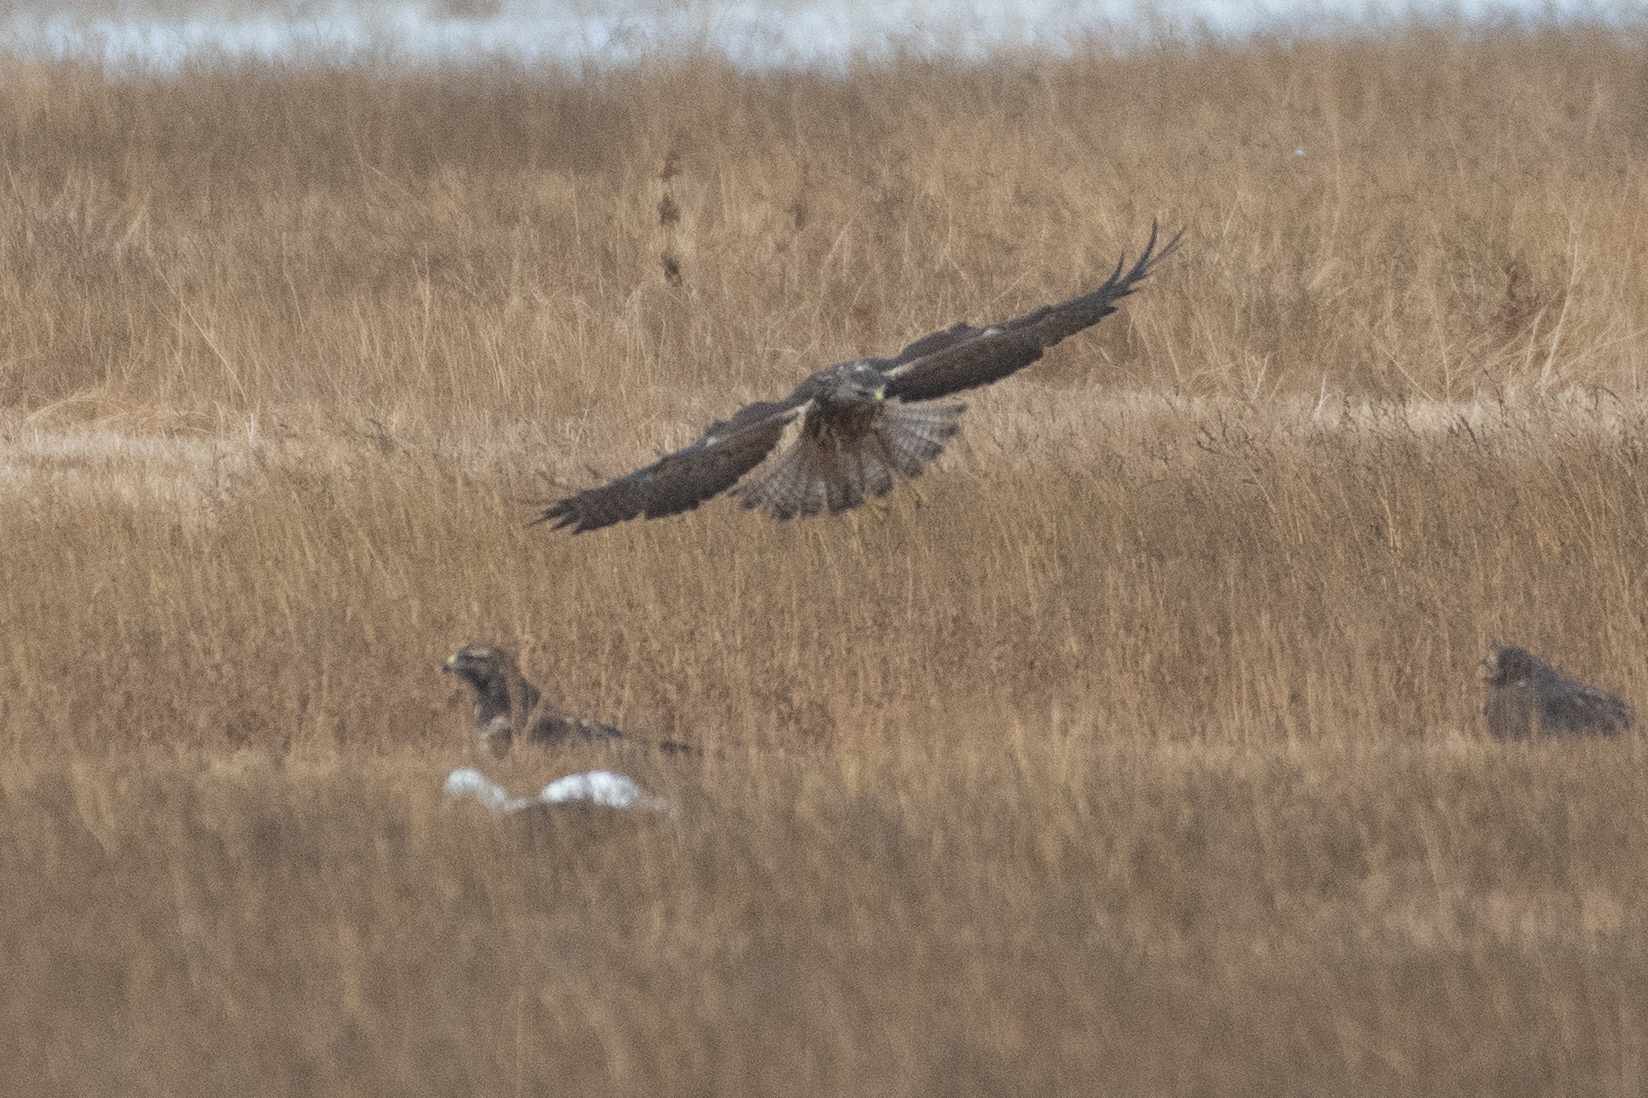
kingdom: Animalia
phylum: Chordata
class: Aves
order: Accipitriformes
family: Accipitridae
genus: Buteo
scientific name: Buteo swainsoni
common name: Swainson's hawk
